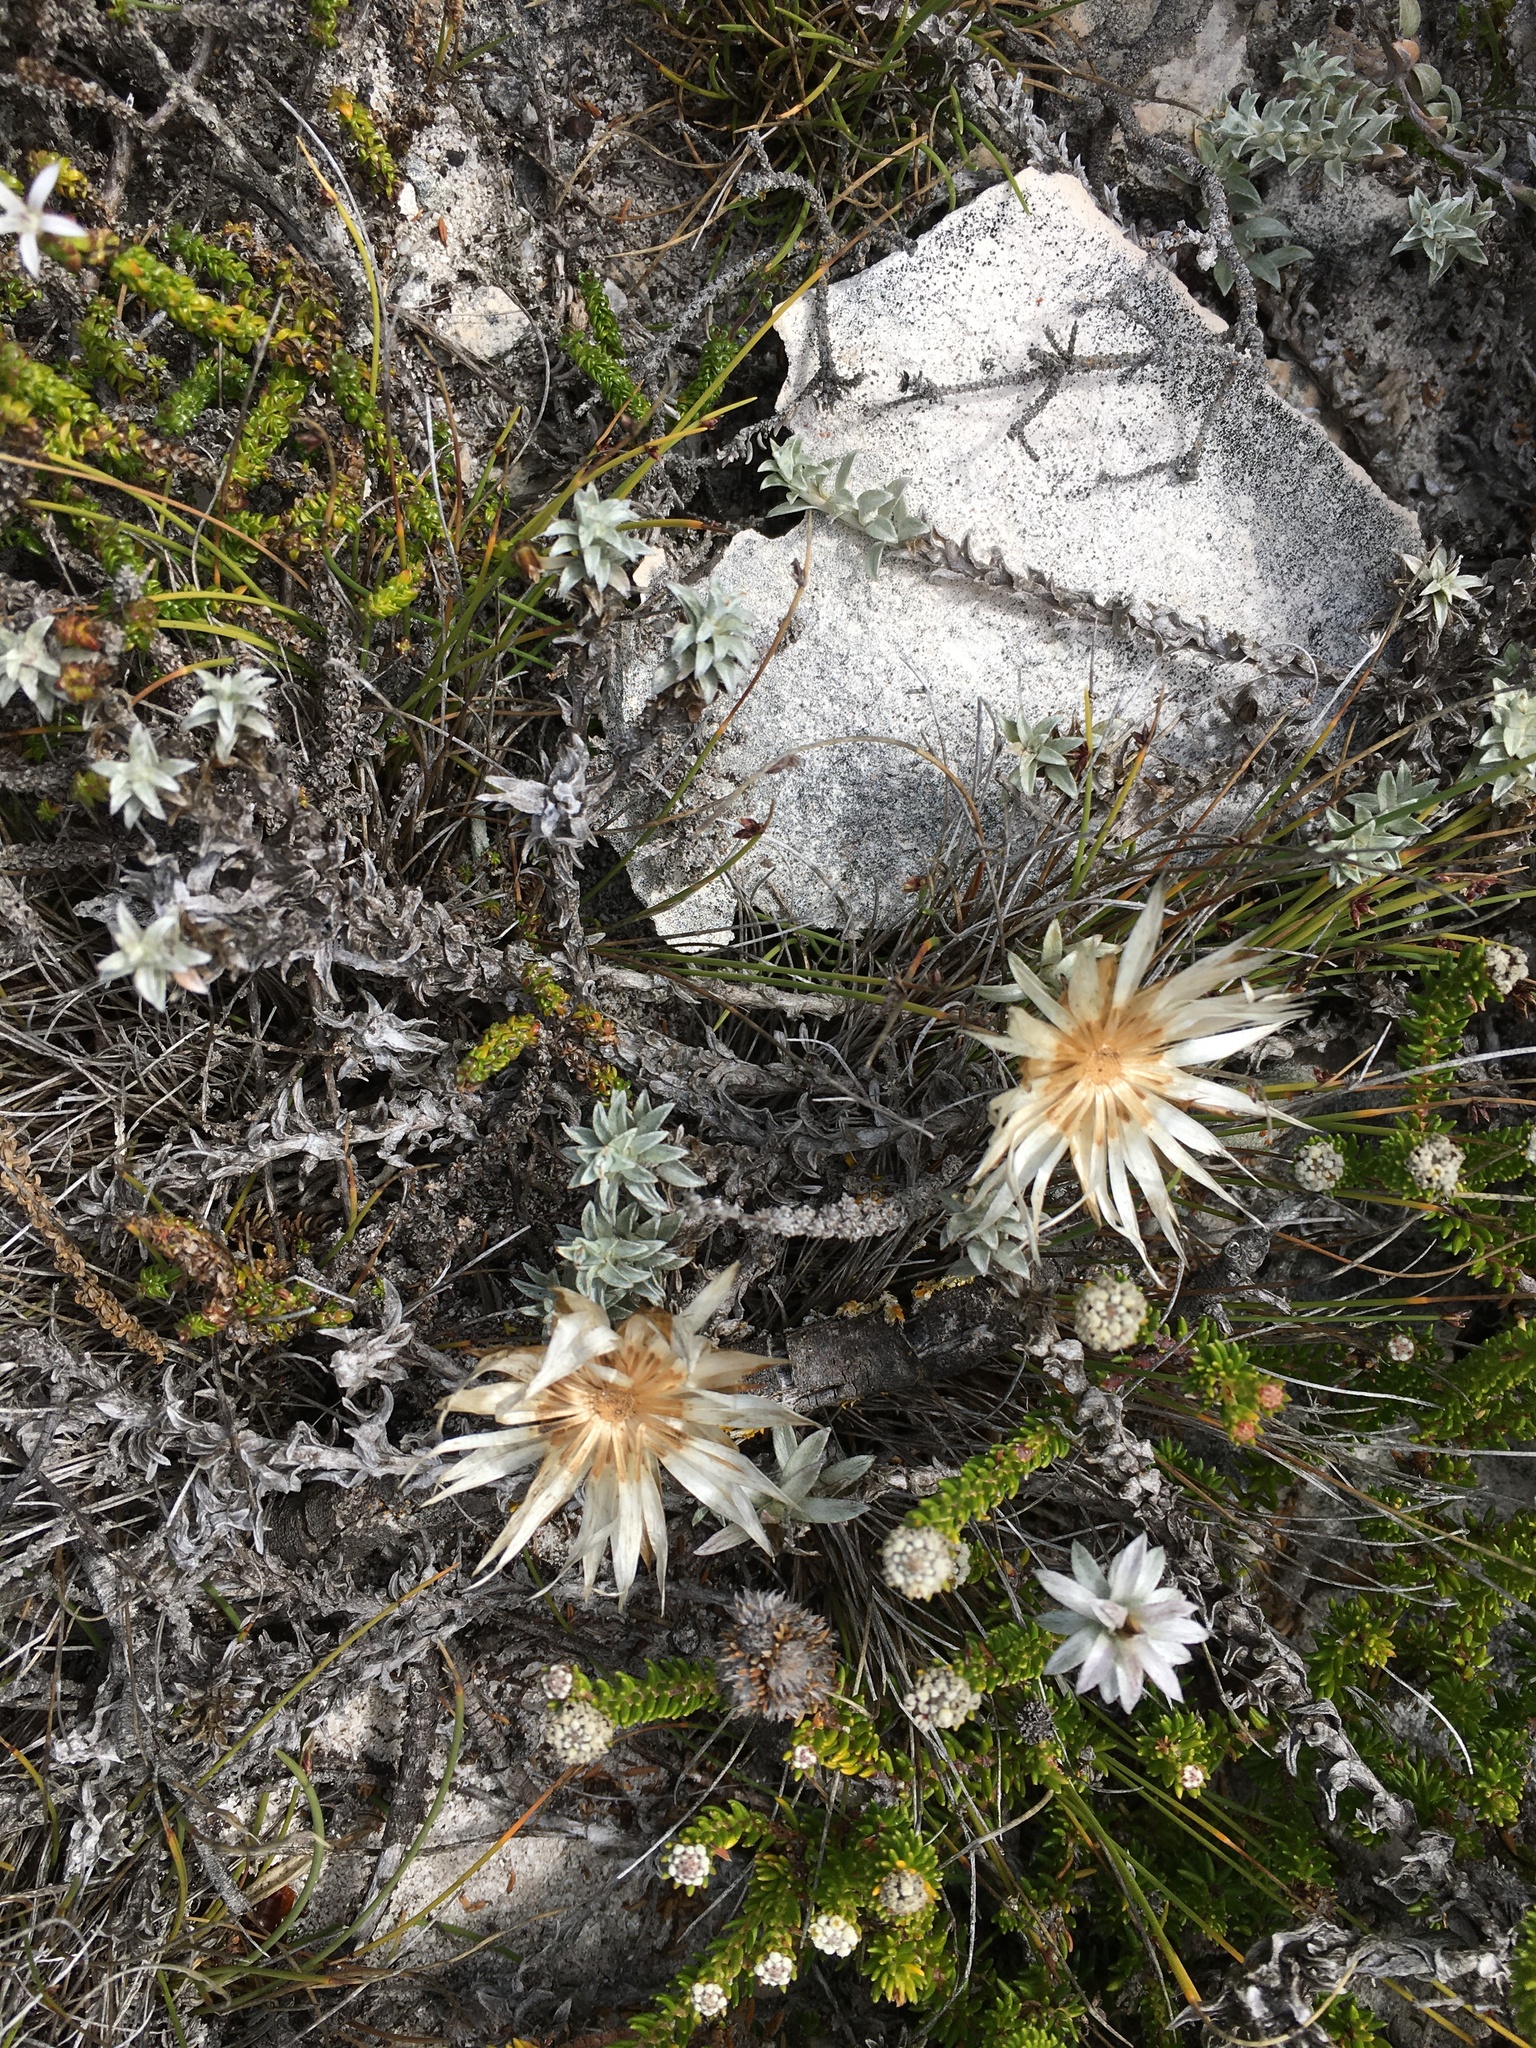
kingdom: Plantae
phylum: Tracheophyta
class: Magnoliopsida
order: Asterales
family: Asteraceae
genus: Helichrysum
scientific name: Helichrysum retortum
